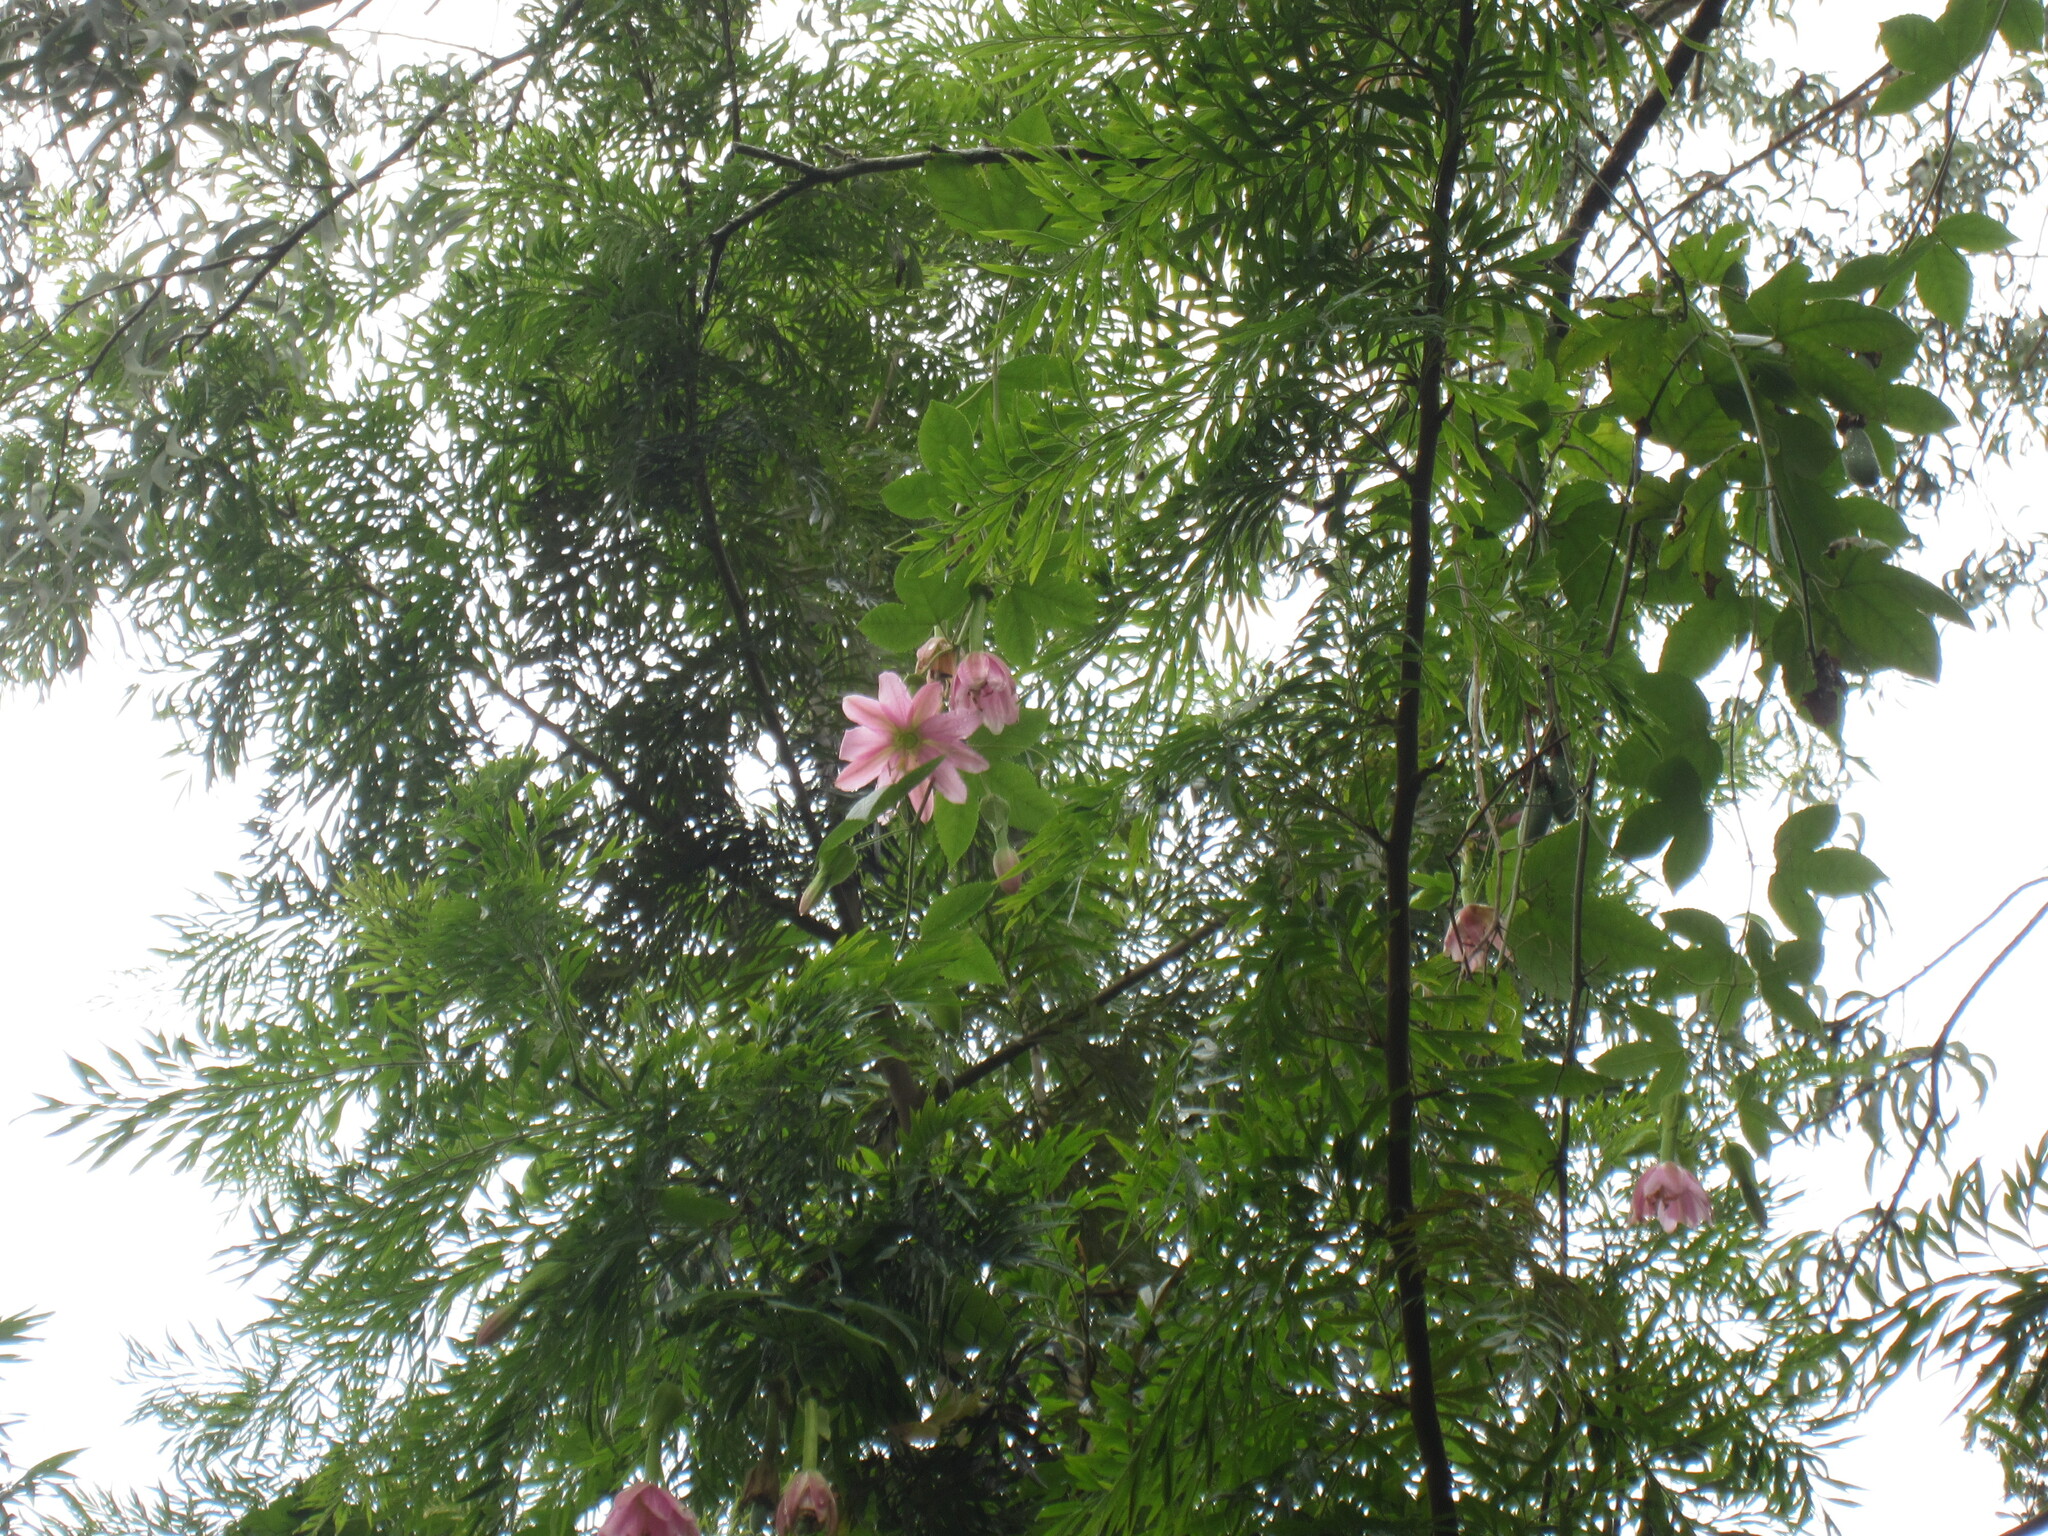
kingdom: Plantae
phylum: Tracheophyta
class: Magnoliopsida
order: Malpighiales
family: Passifloraceae
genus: Passiflora
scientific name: Passiflora tarminiana
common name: Banana poka
